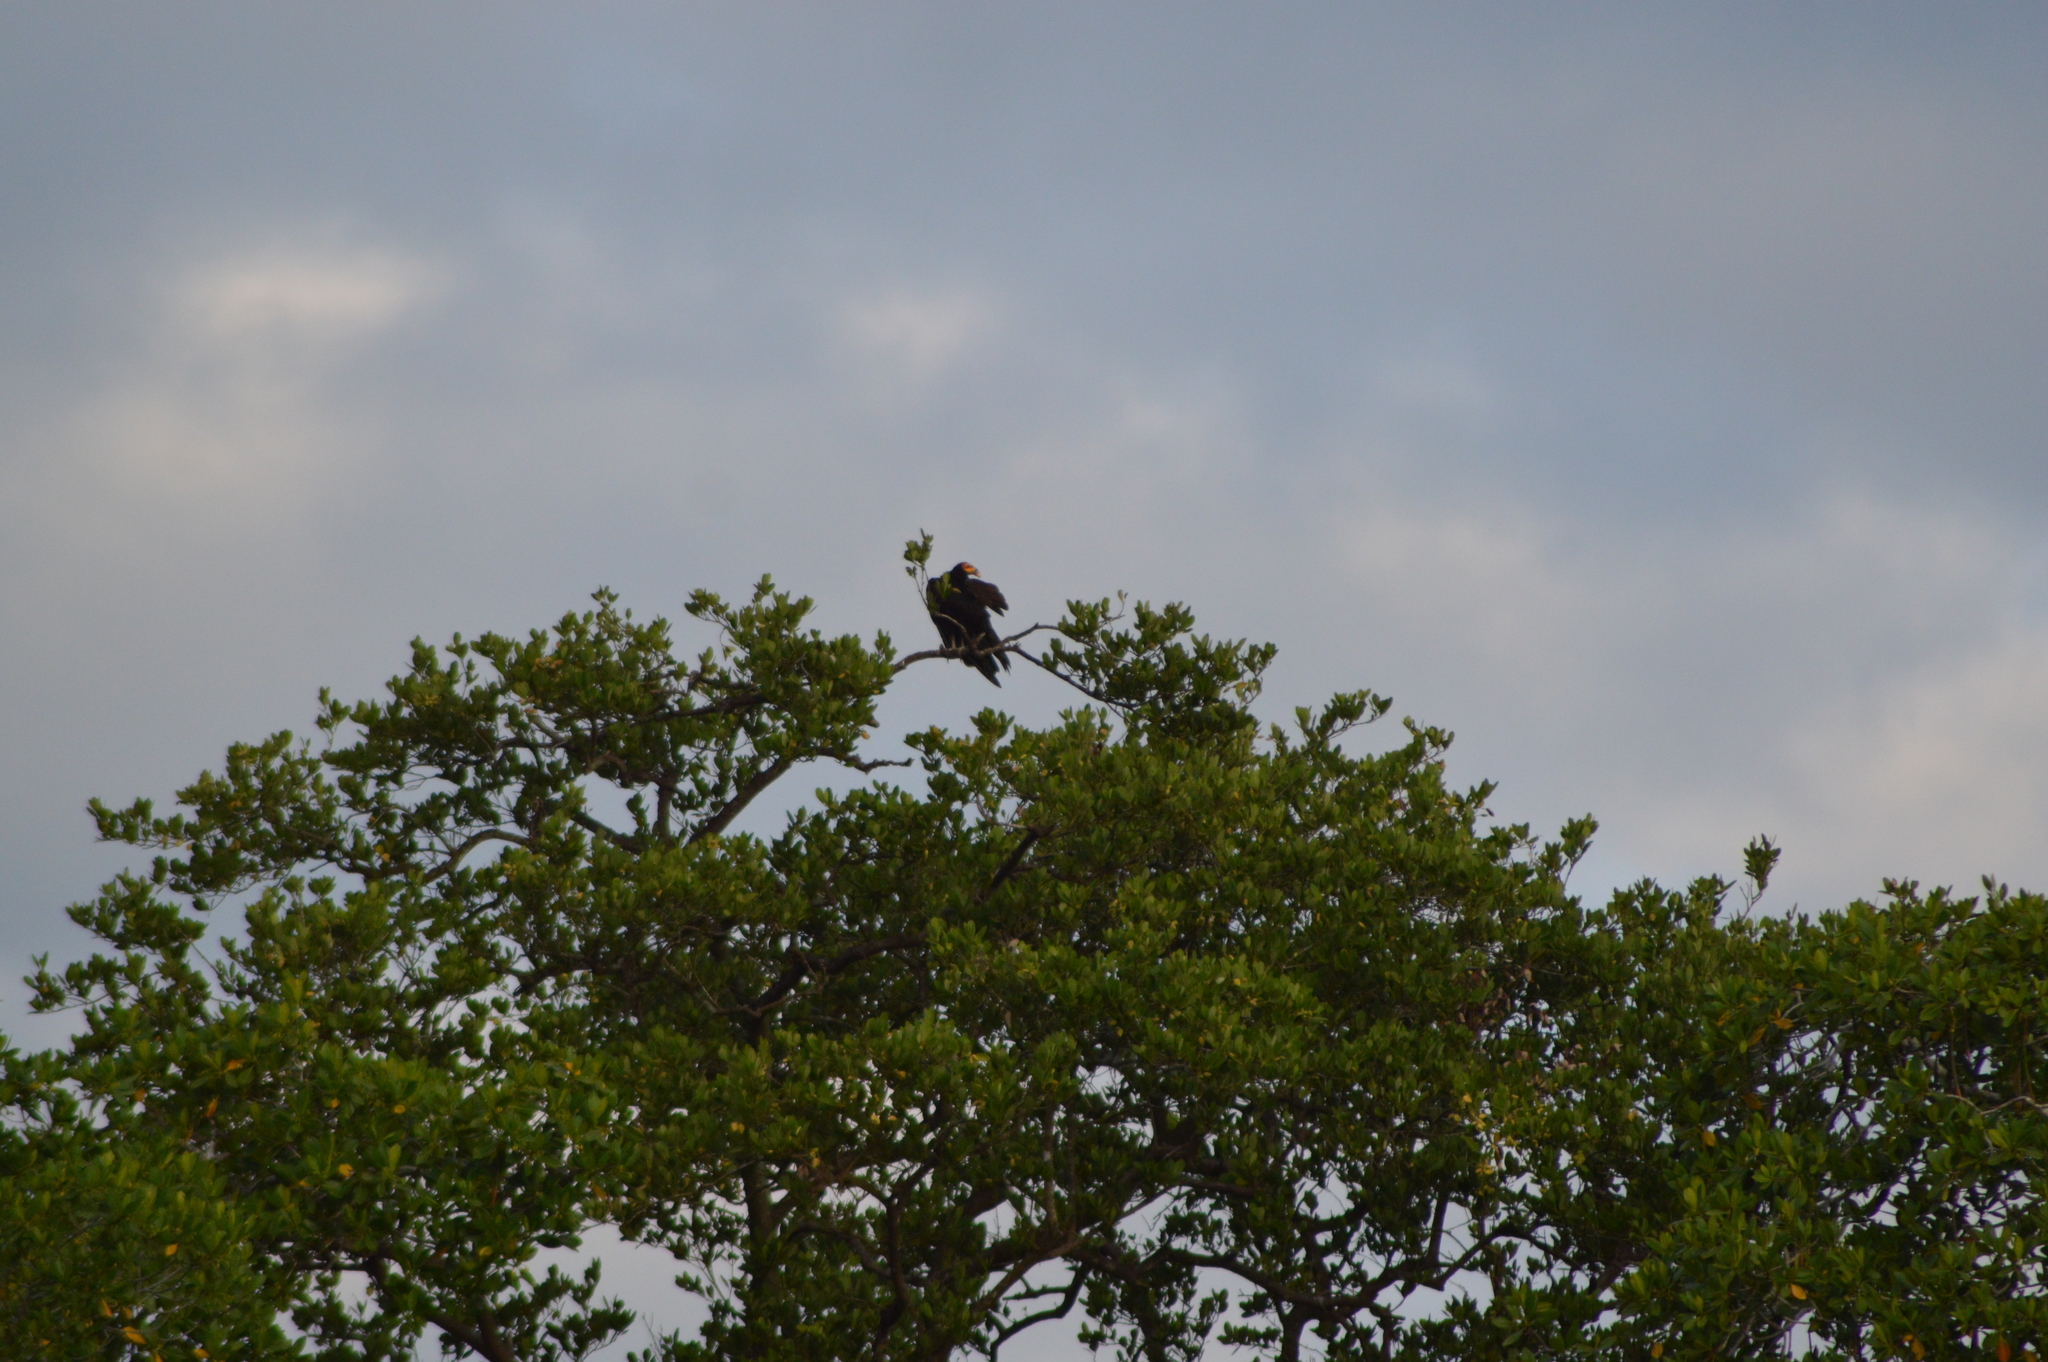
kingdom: Animalia
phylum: Chordata
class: Aves
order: Accipitriformes
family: Cathartidae
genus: Cathartes
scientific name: Cathartes burrovianus
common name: Lesser yellow-headed vulture
